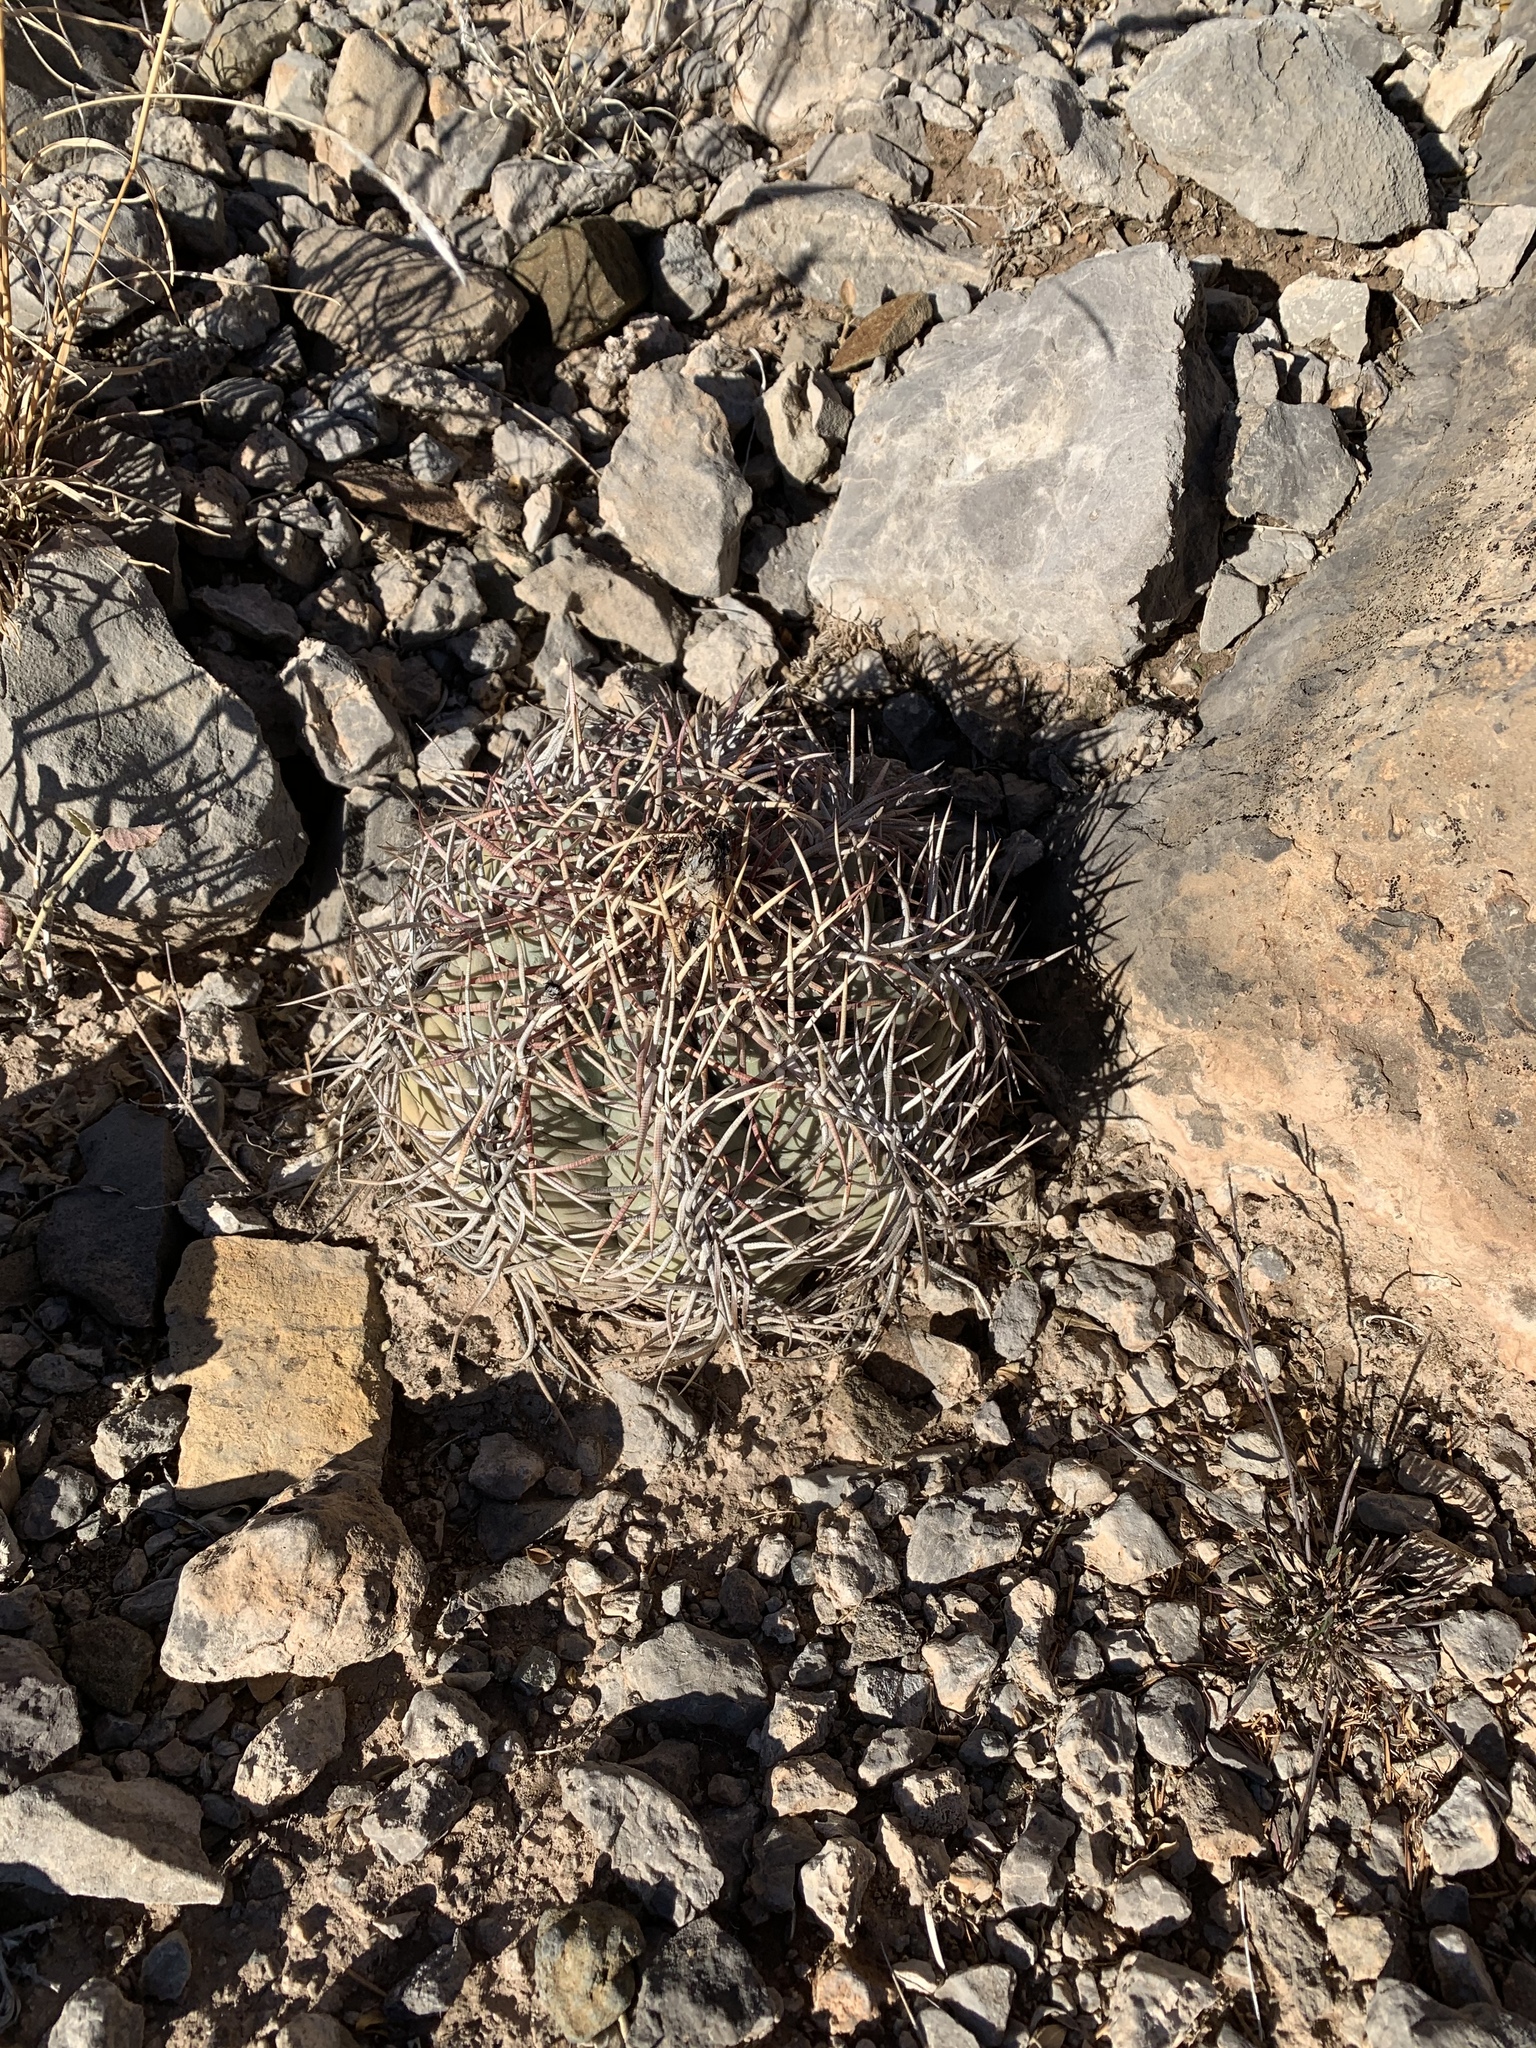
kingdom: Plantae
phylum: Tracheophyta
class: Magnoliopsida
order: Caryophyllales
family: Cactaceae
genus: Echinocactus
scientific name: Echinocactus horizonthalonius
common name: Devilshead
